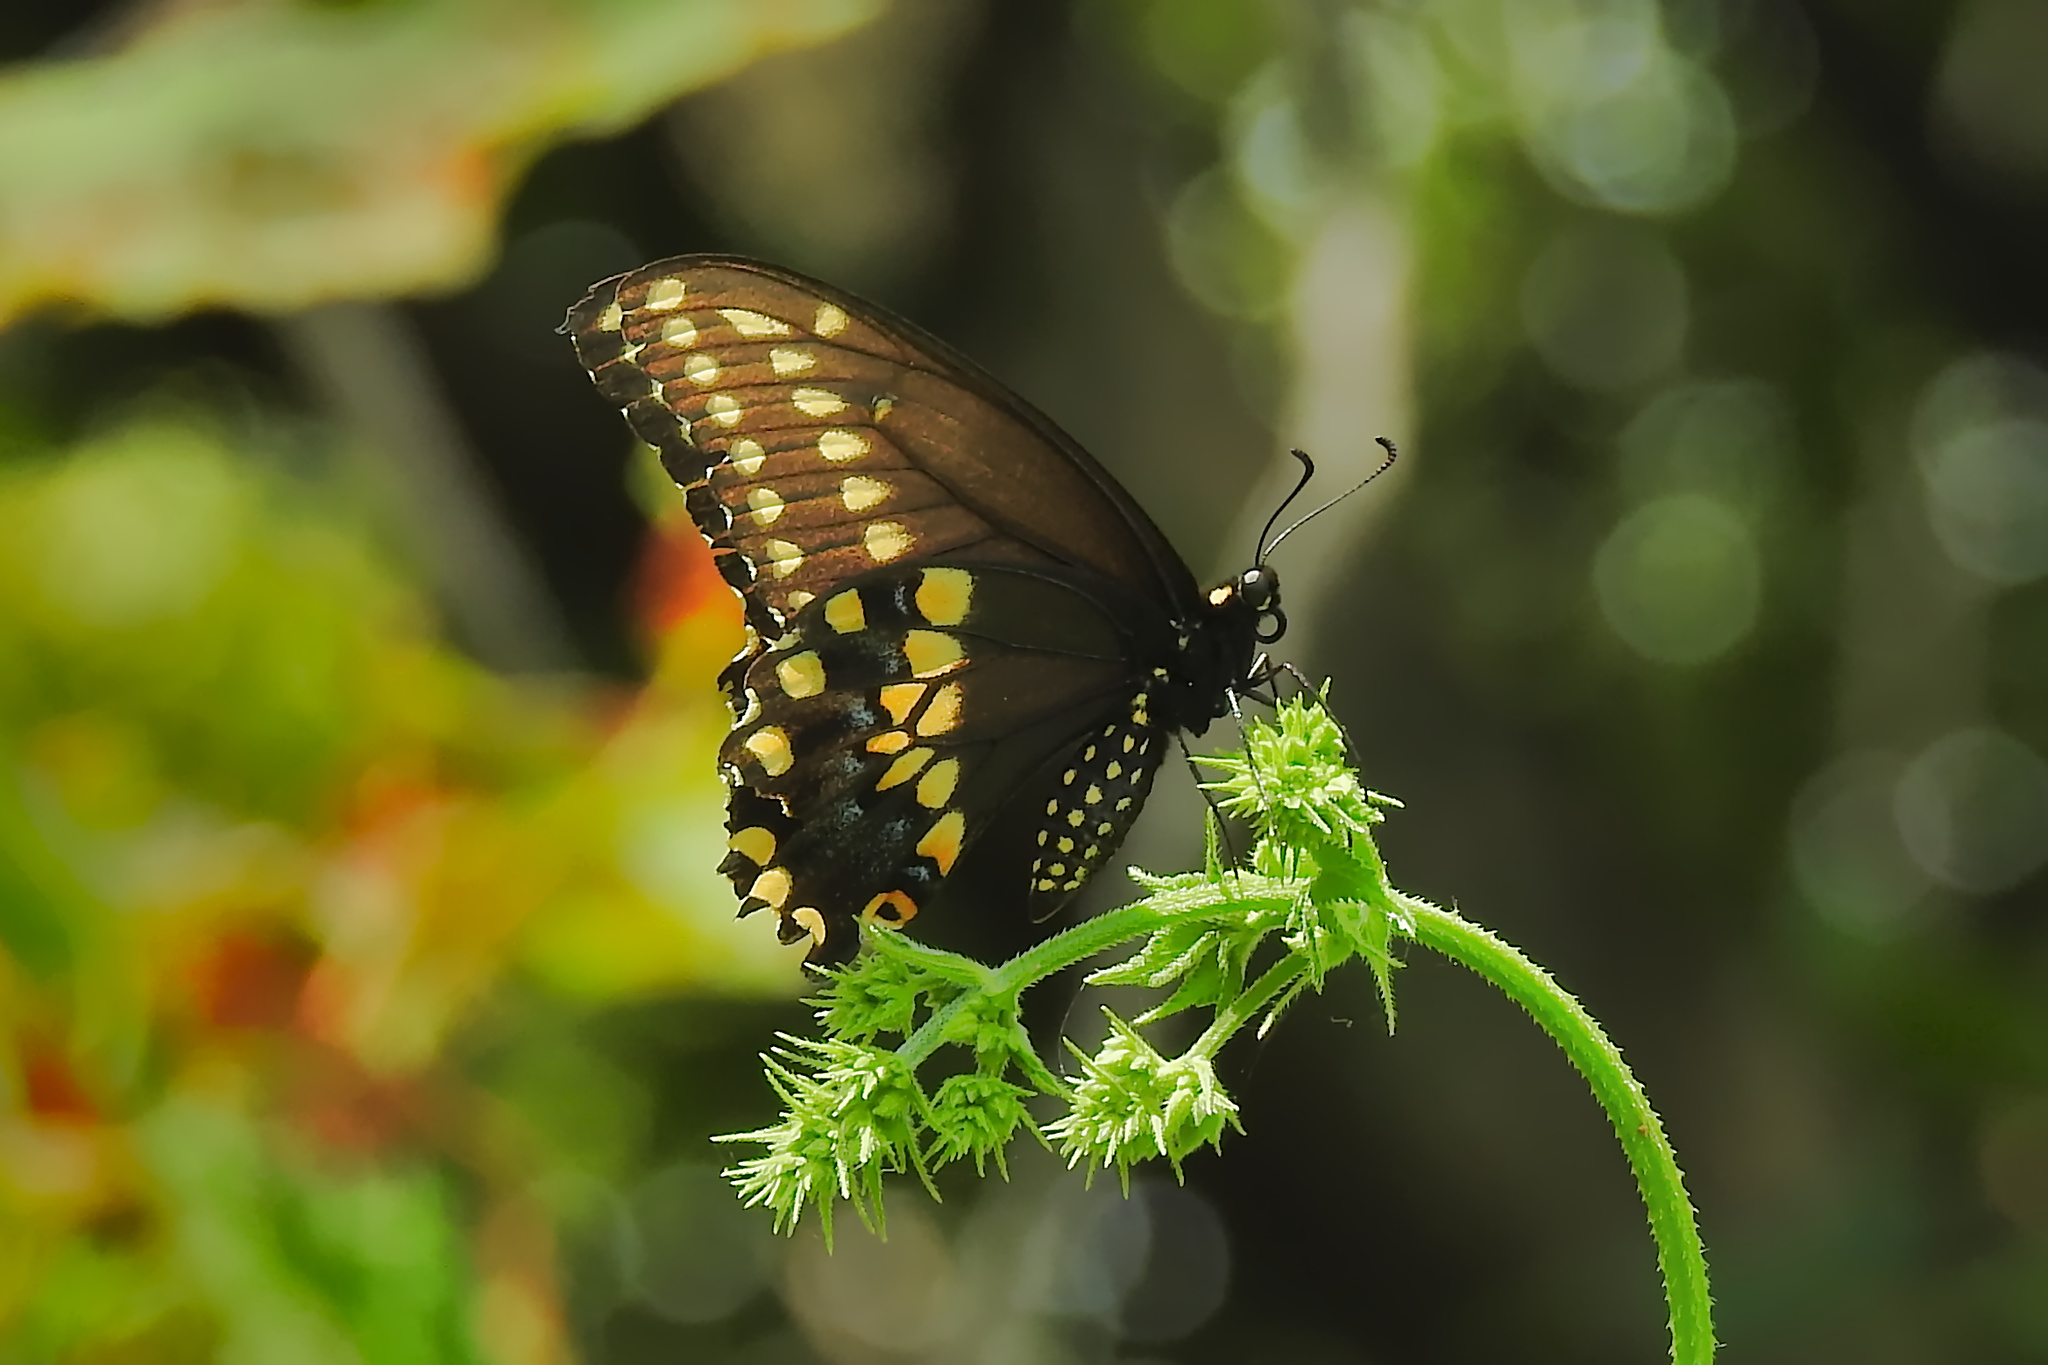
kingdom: Animalia
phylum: Arthropoda
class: Insecta
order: Lepidoptera
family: Papilionidae
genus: Papilio
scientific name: Papilio polyxenes
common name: Black swallowtail
